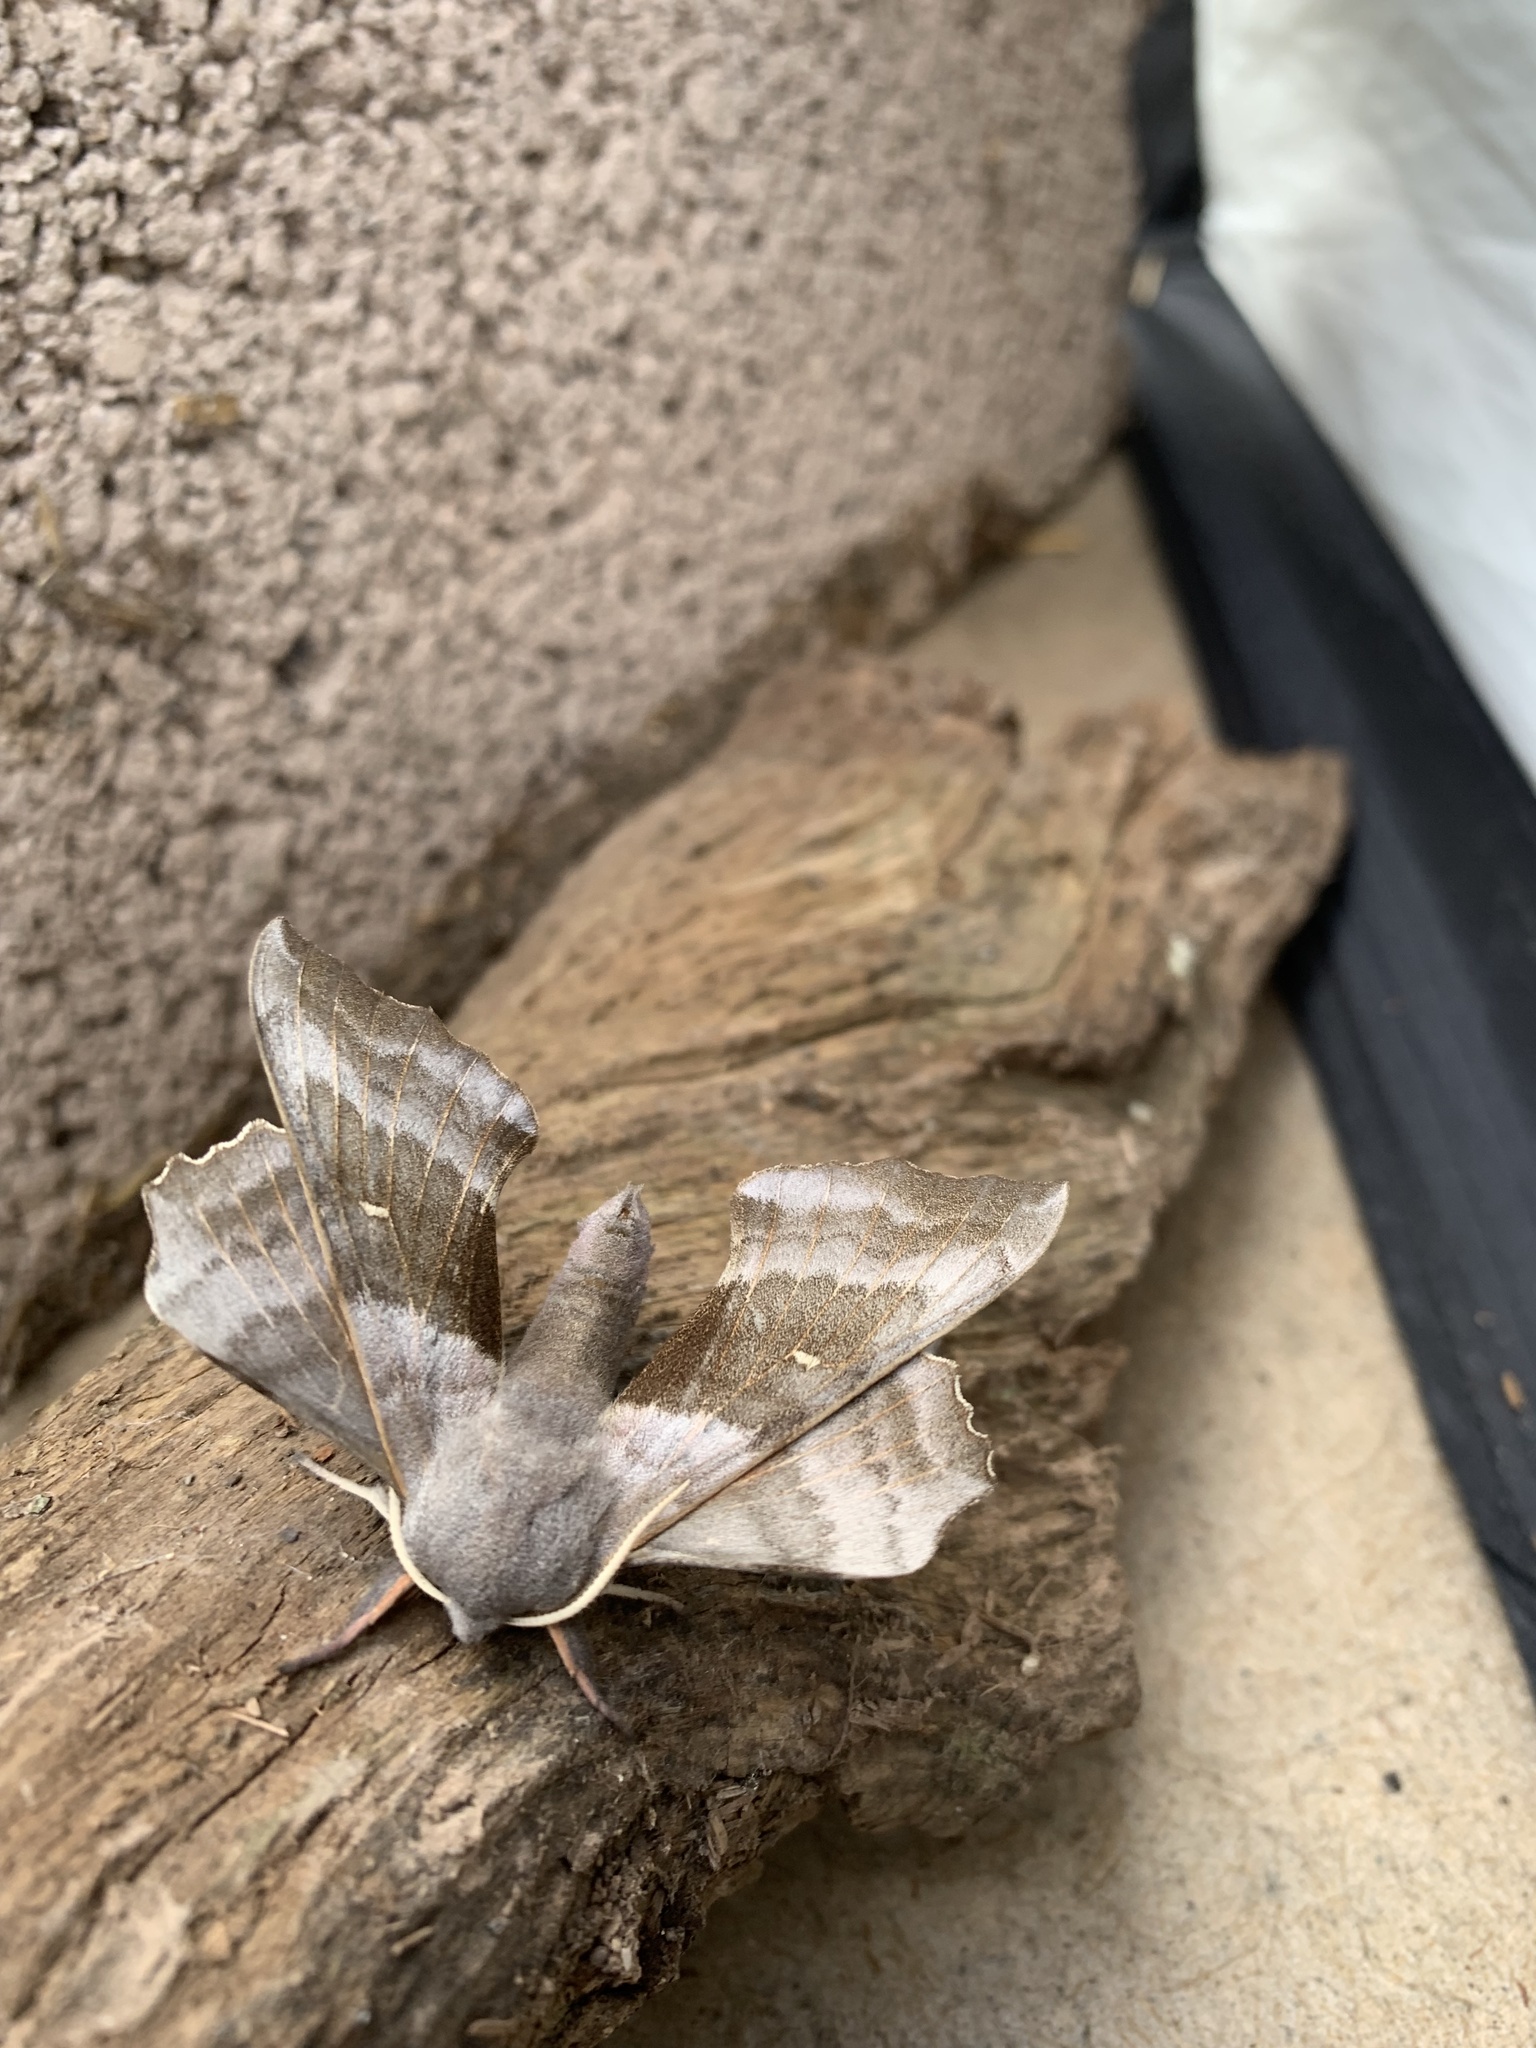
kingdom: Animalia
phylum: Arthropoda
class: Insecta
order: Lepidoptera
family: Sphingidae
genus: Laothoe
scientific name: Laothoe populi
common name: Poplar hawk-moth
